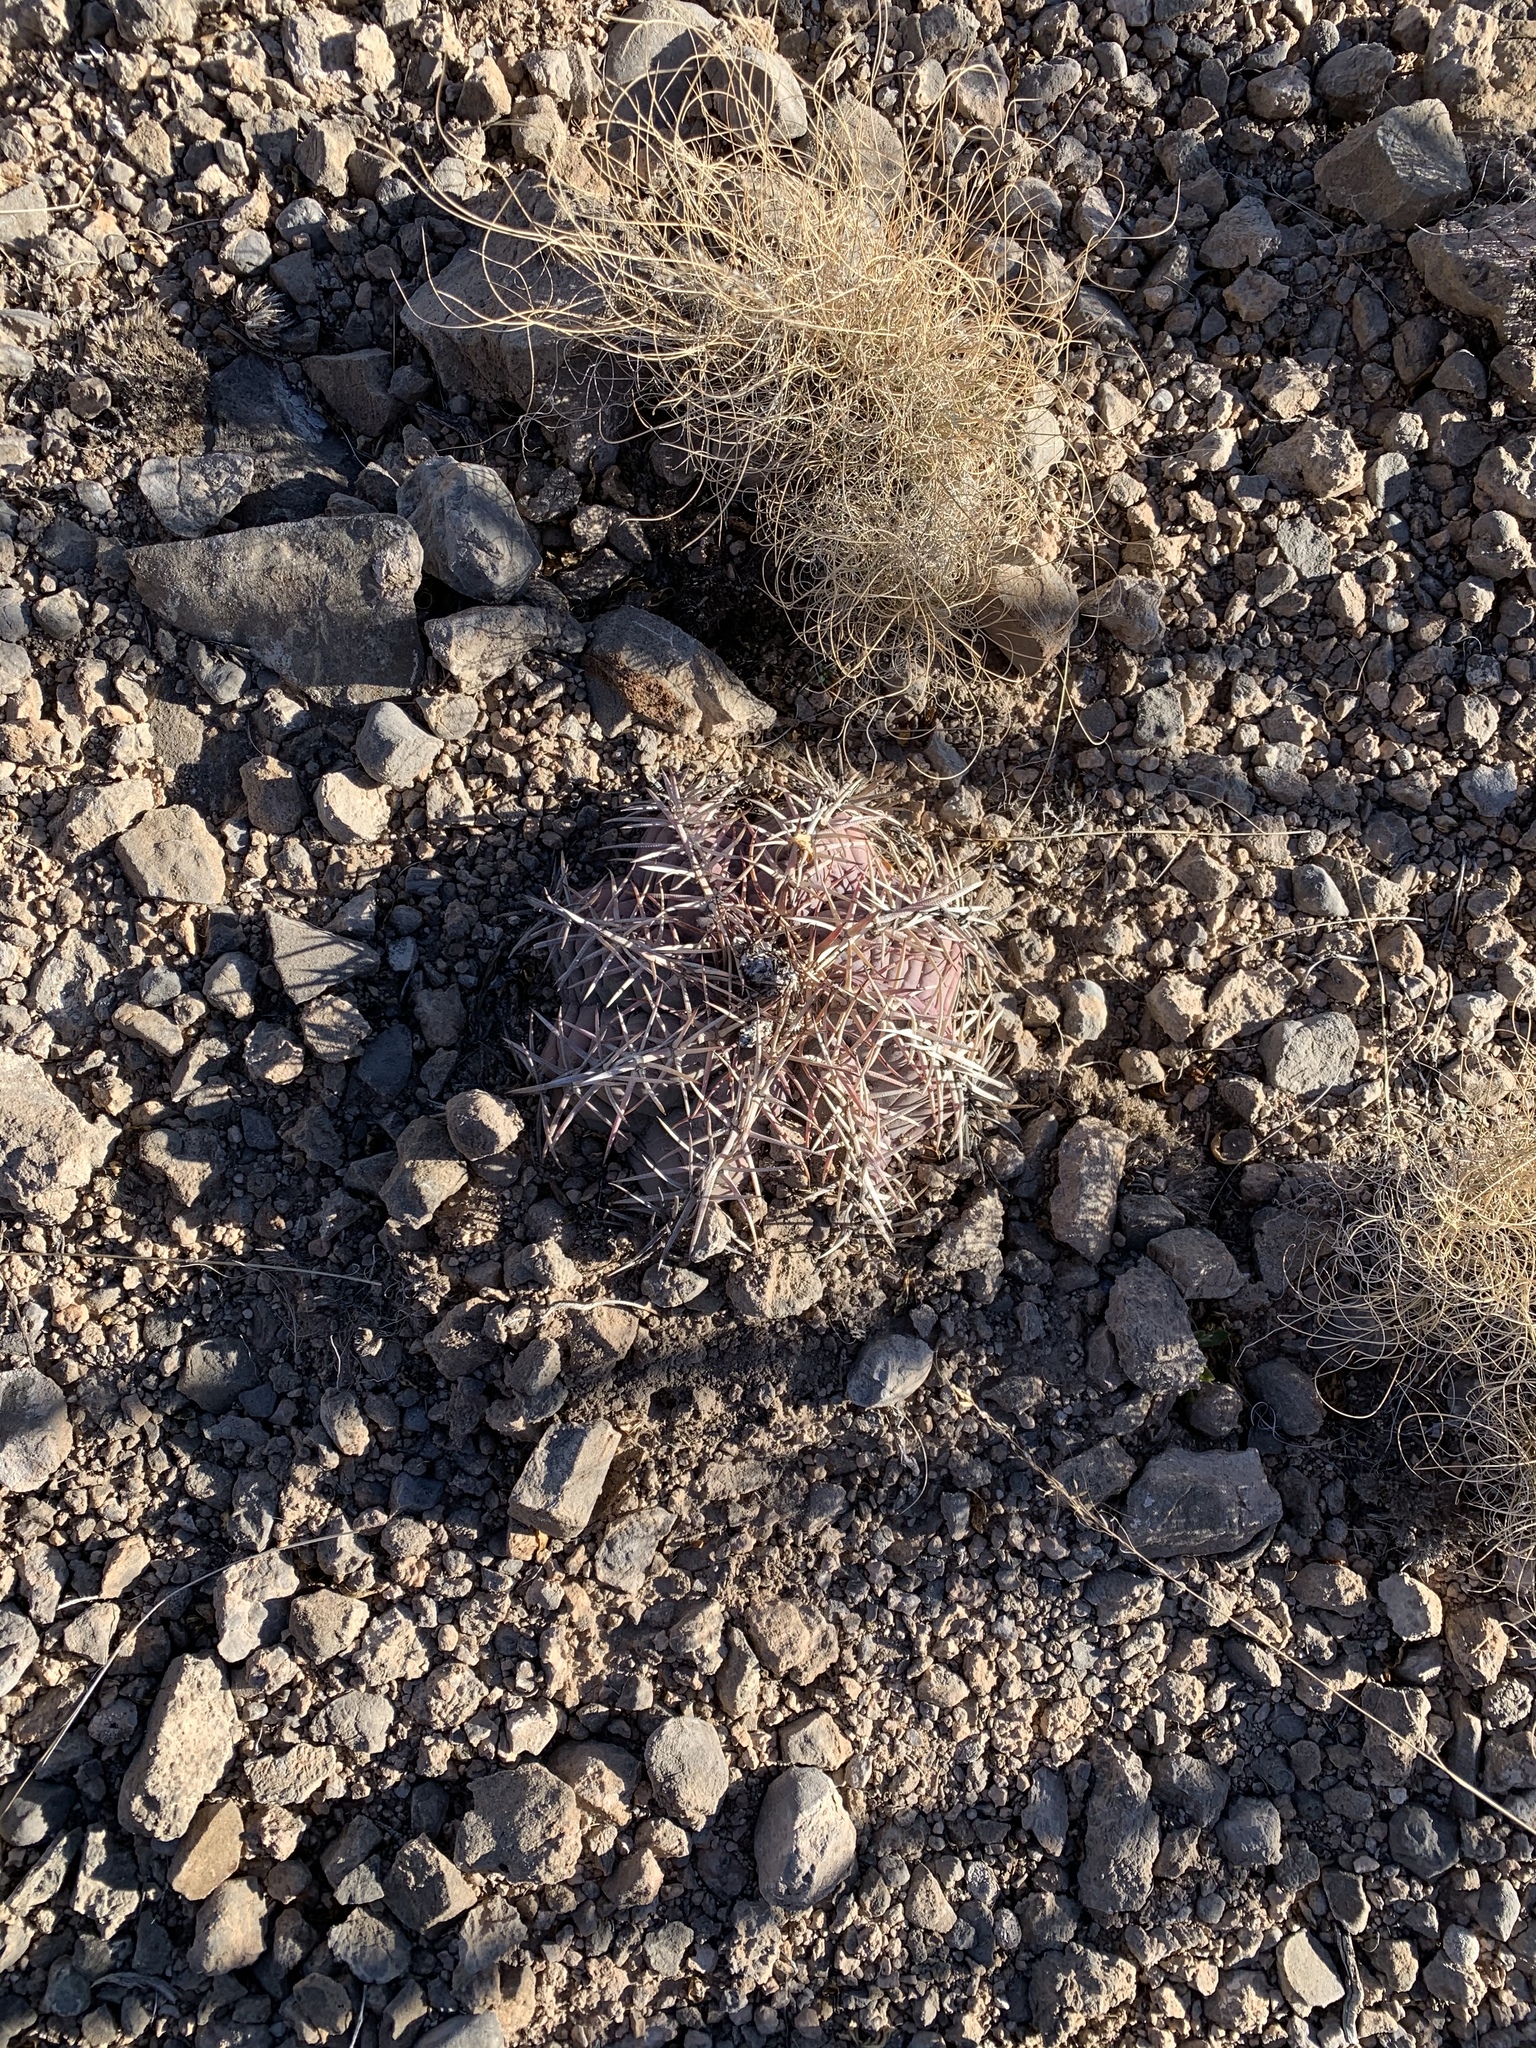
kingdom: Plantae
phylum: Tracheophyta
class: Magnoliopsida
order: Caryophyllales
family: Cactaceae
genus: Echinocactus
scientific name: Echinocactus horizonthalonius
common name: Devilshead
